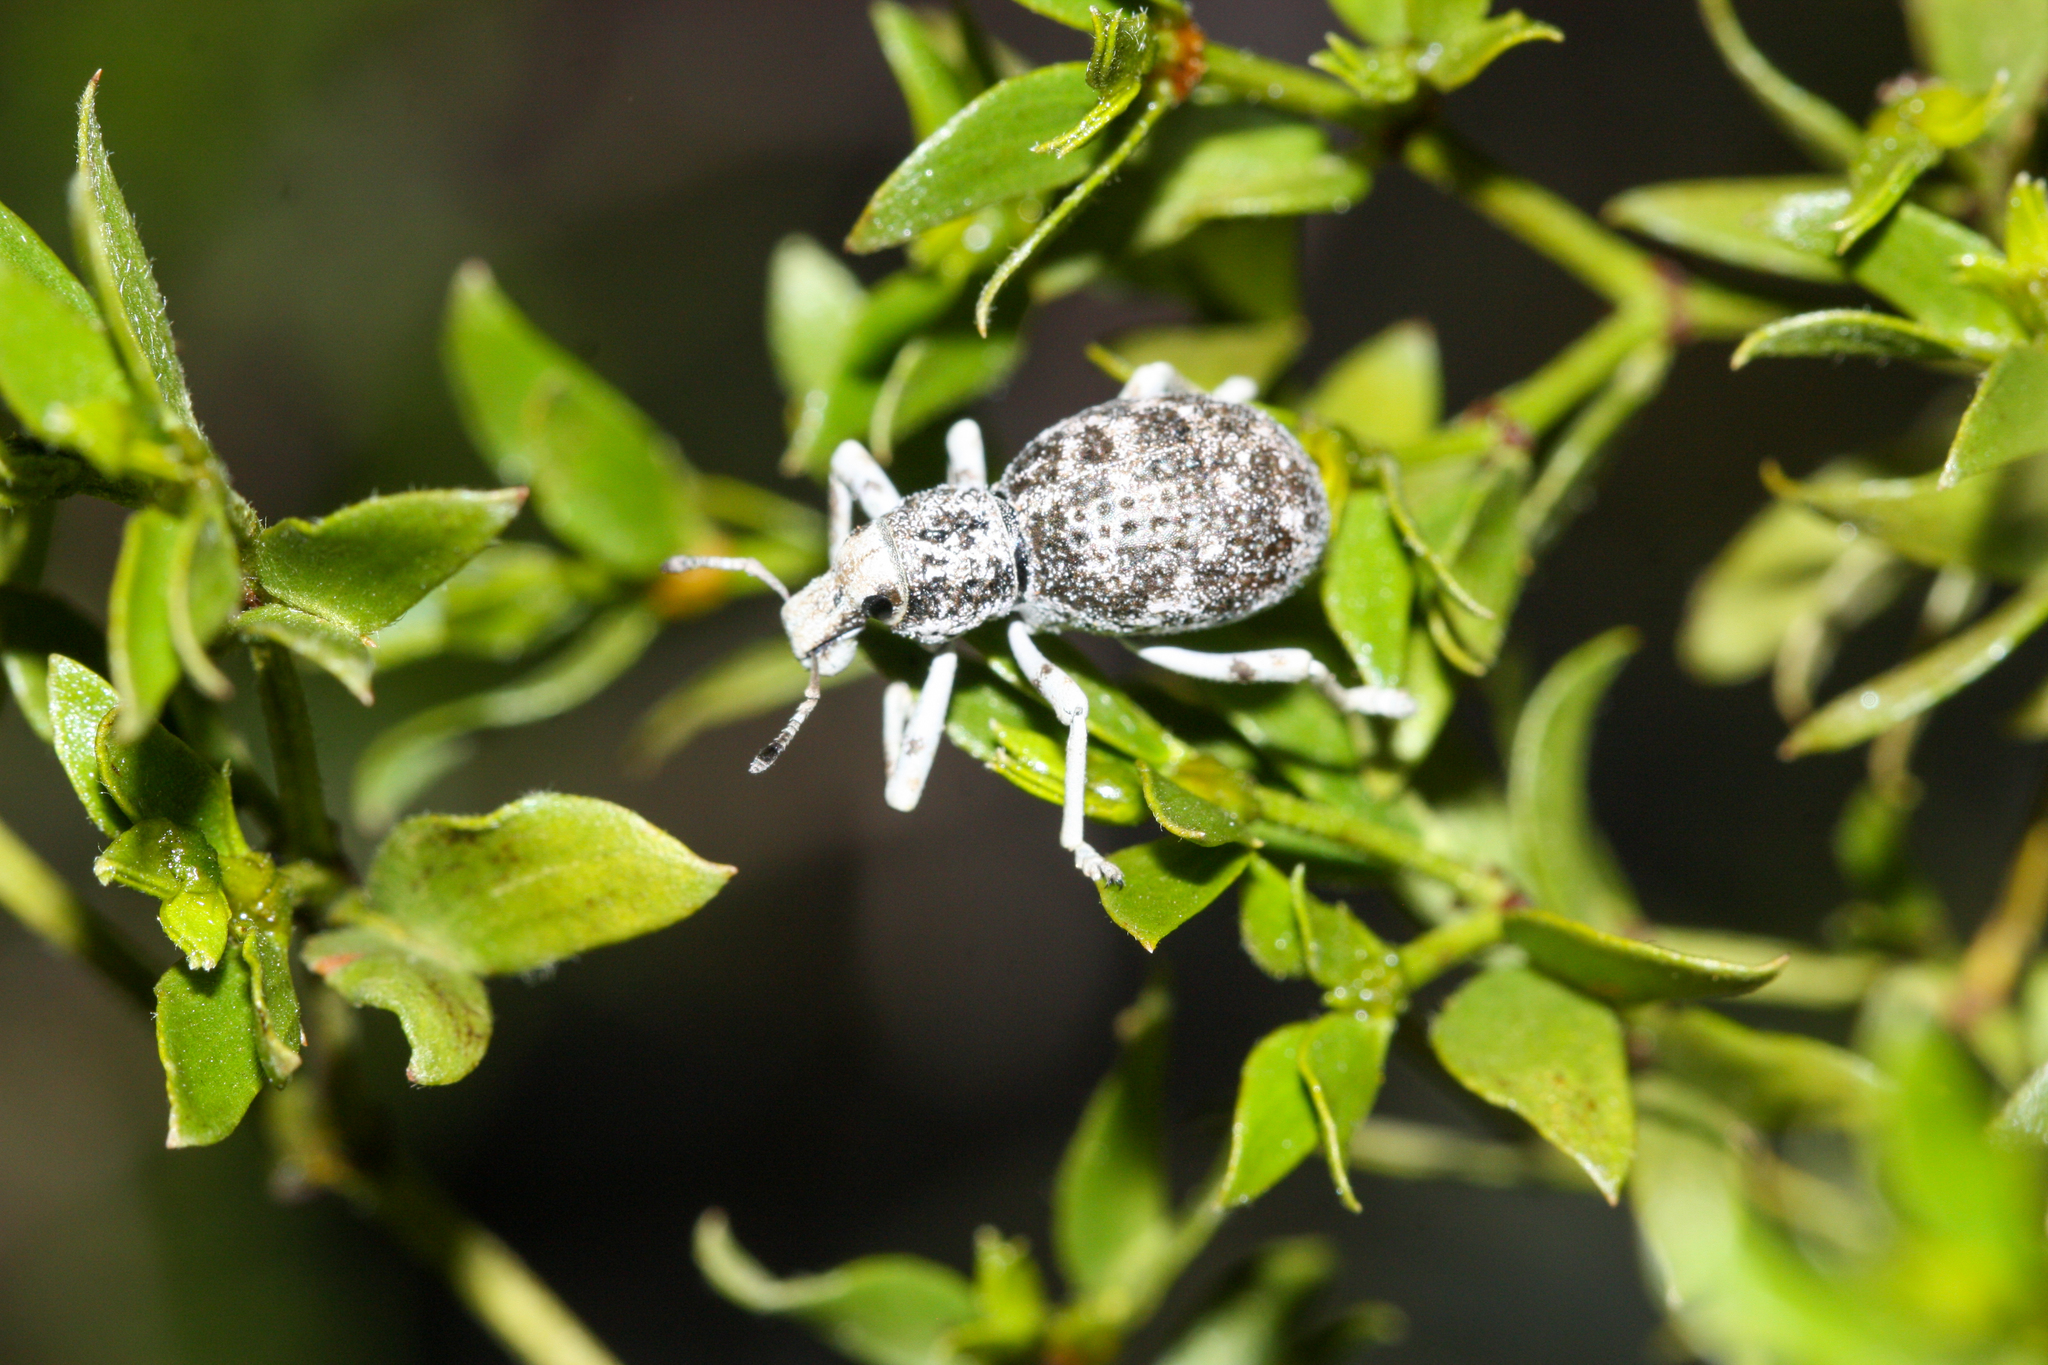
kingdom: Animalia
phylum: Arthropoda
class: Insecta
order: Coleoptera
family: Curculionidae
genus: Ophryastes
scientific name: Ophryastes
